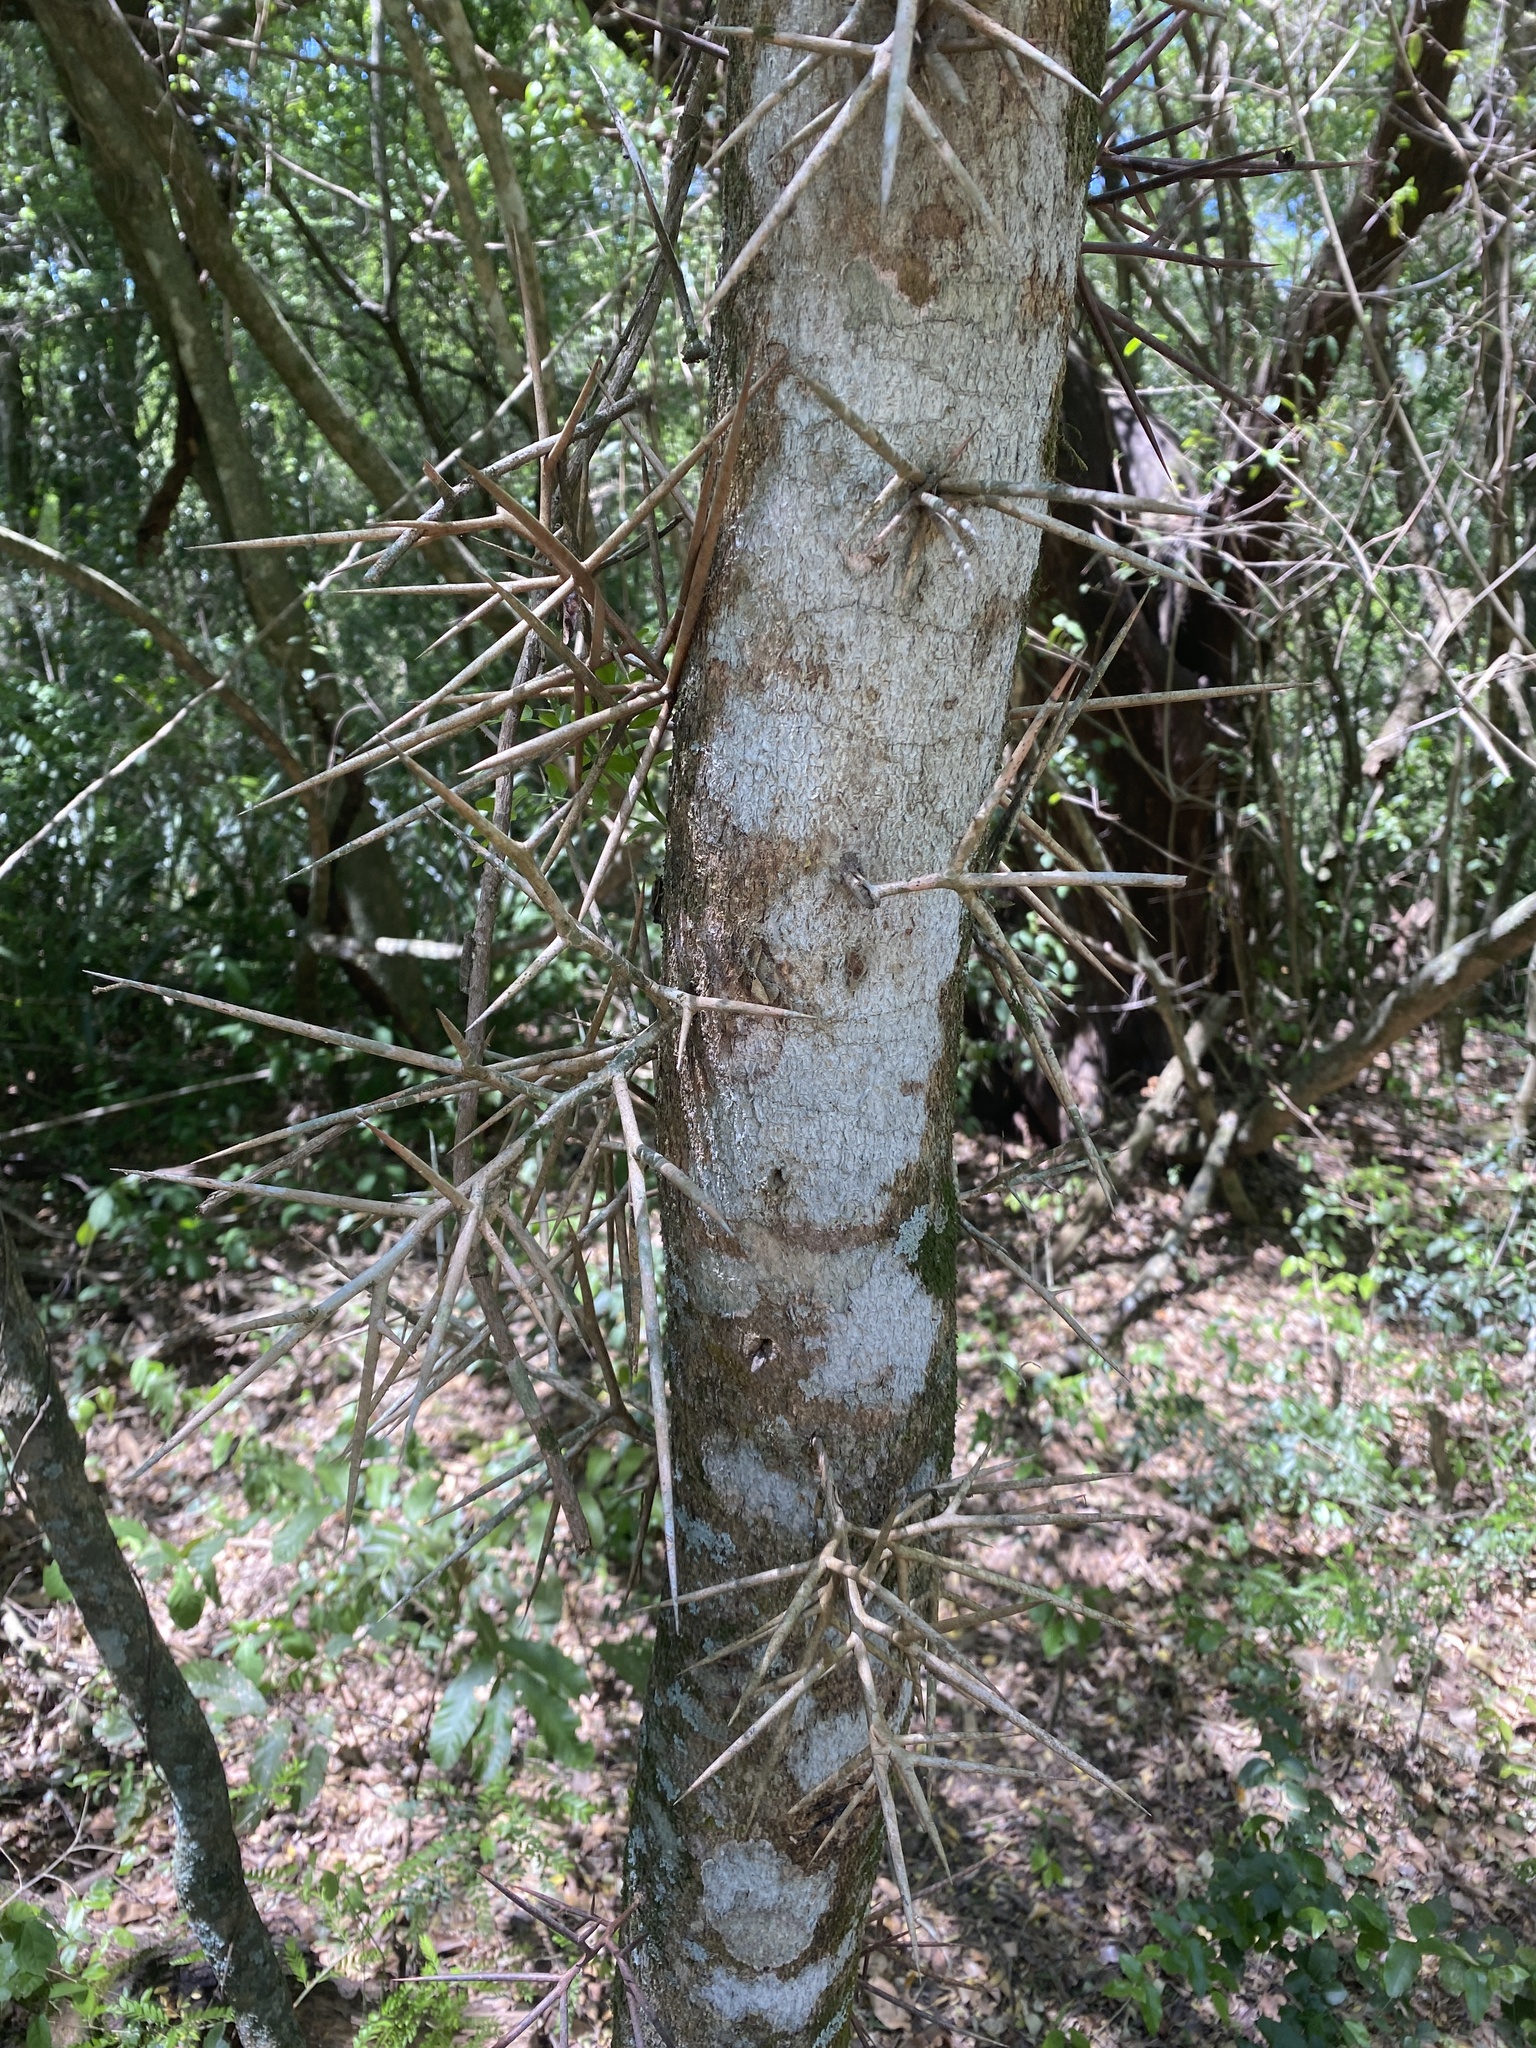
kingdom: Plantae
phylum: Tracheophyta
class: Magnoliopsida
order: Fabales
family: Fabaceae
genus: Gleditsia
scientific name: Gleditsia amorphoides
